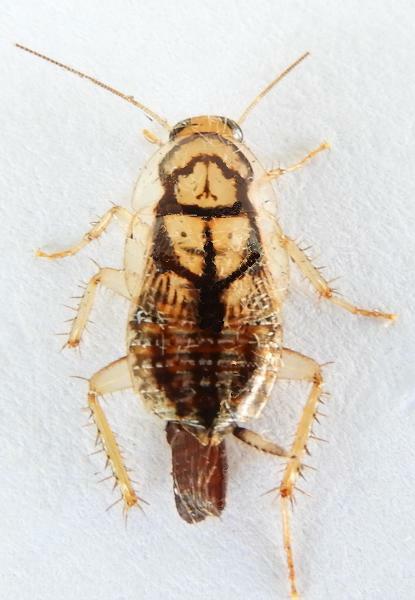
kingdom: Animalia
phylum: Arthropoda
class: Insecta
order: Blattodea
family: Ectobiidae
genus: Aglaopteryx
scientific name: Aglaopteryx gemma
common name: Shortwing gem cockroach
